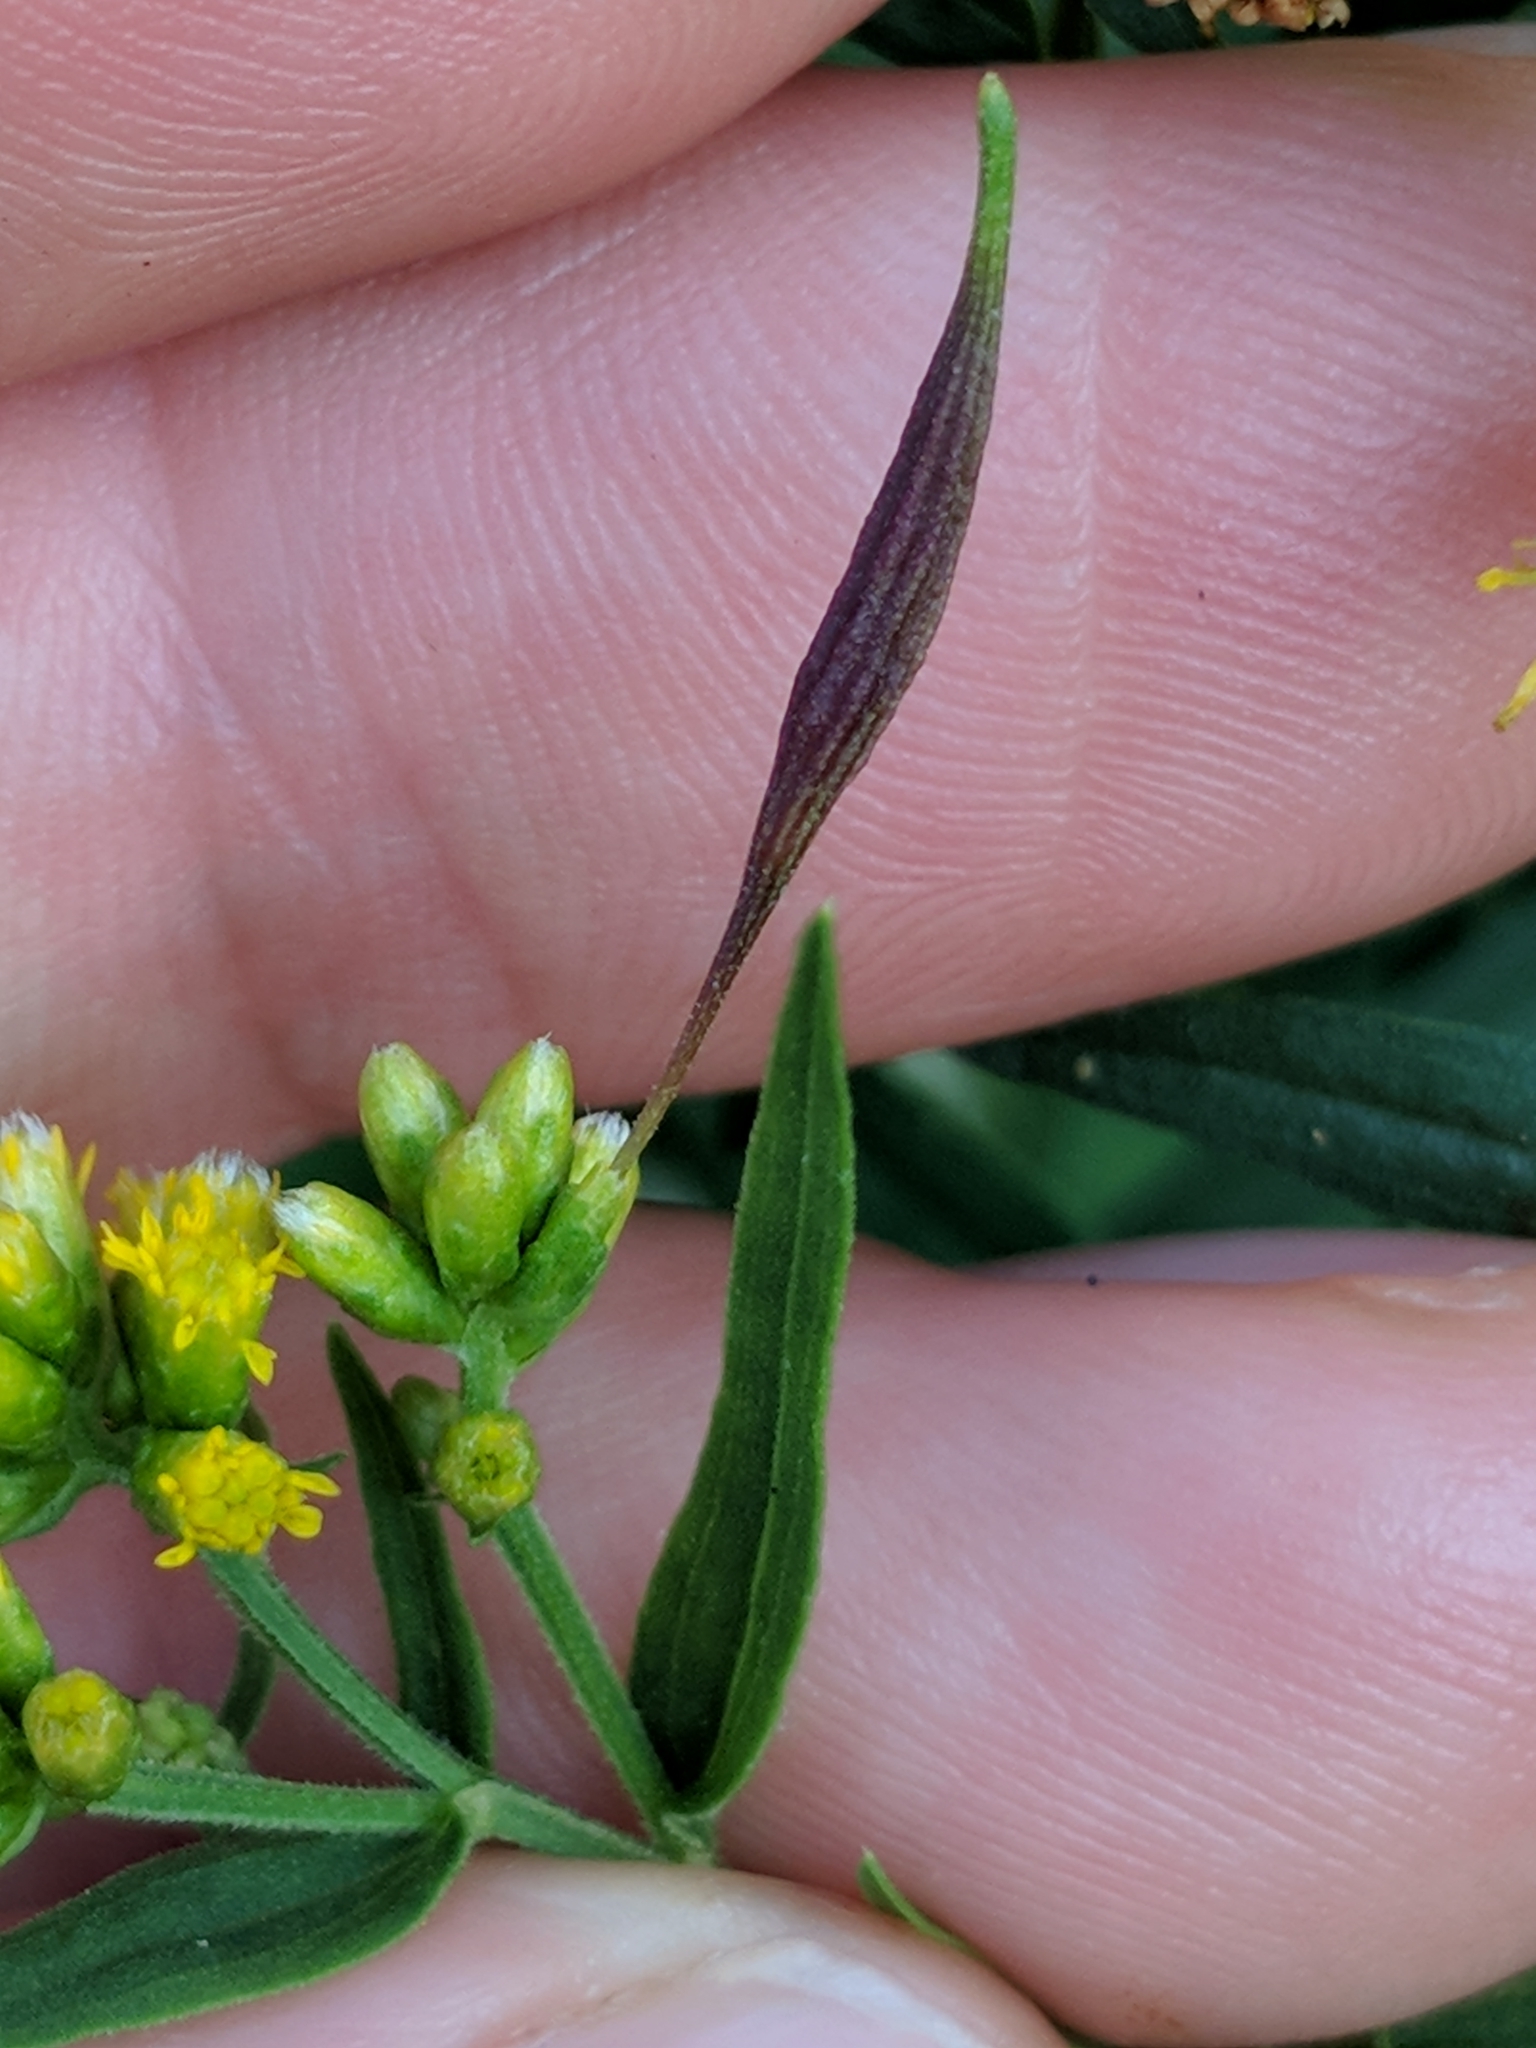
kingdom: Animalia
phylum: Arthropoda
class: Insecta
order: Diptera
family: Cecidomyiidae
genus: Rhopalomyia
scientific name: Rhopalomyia pedicellata
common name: Goldentop pedicellate gall midge
